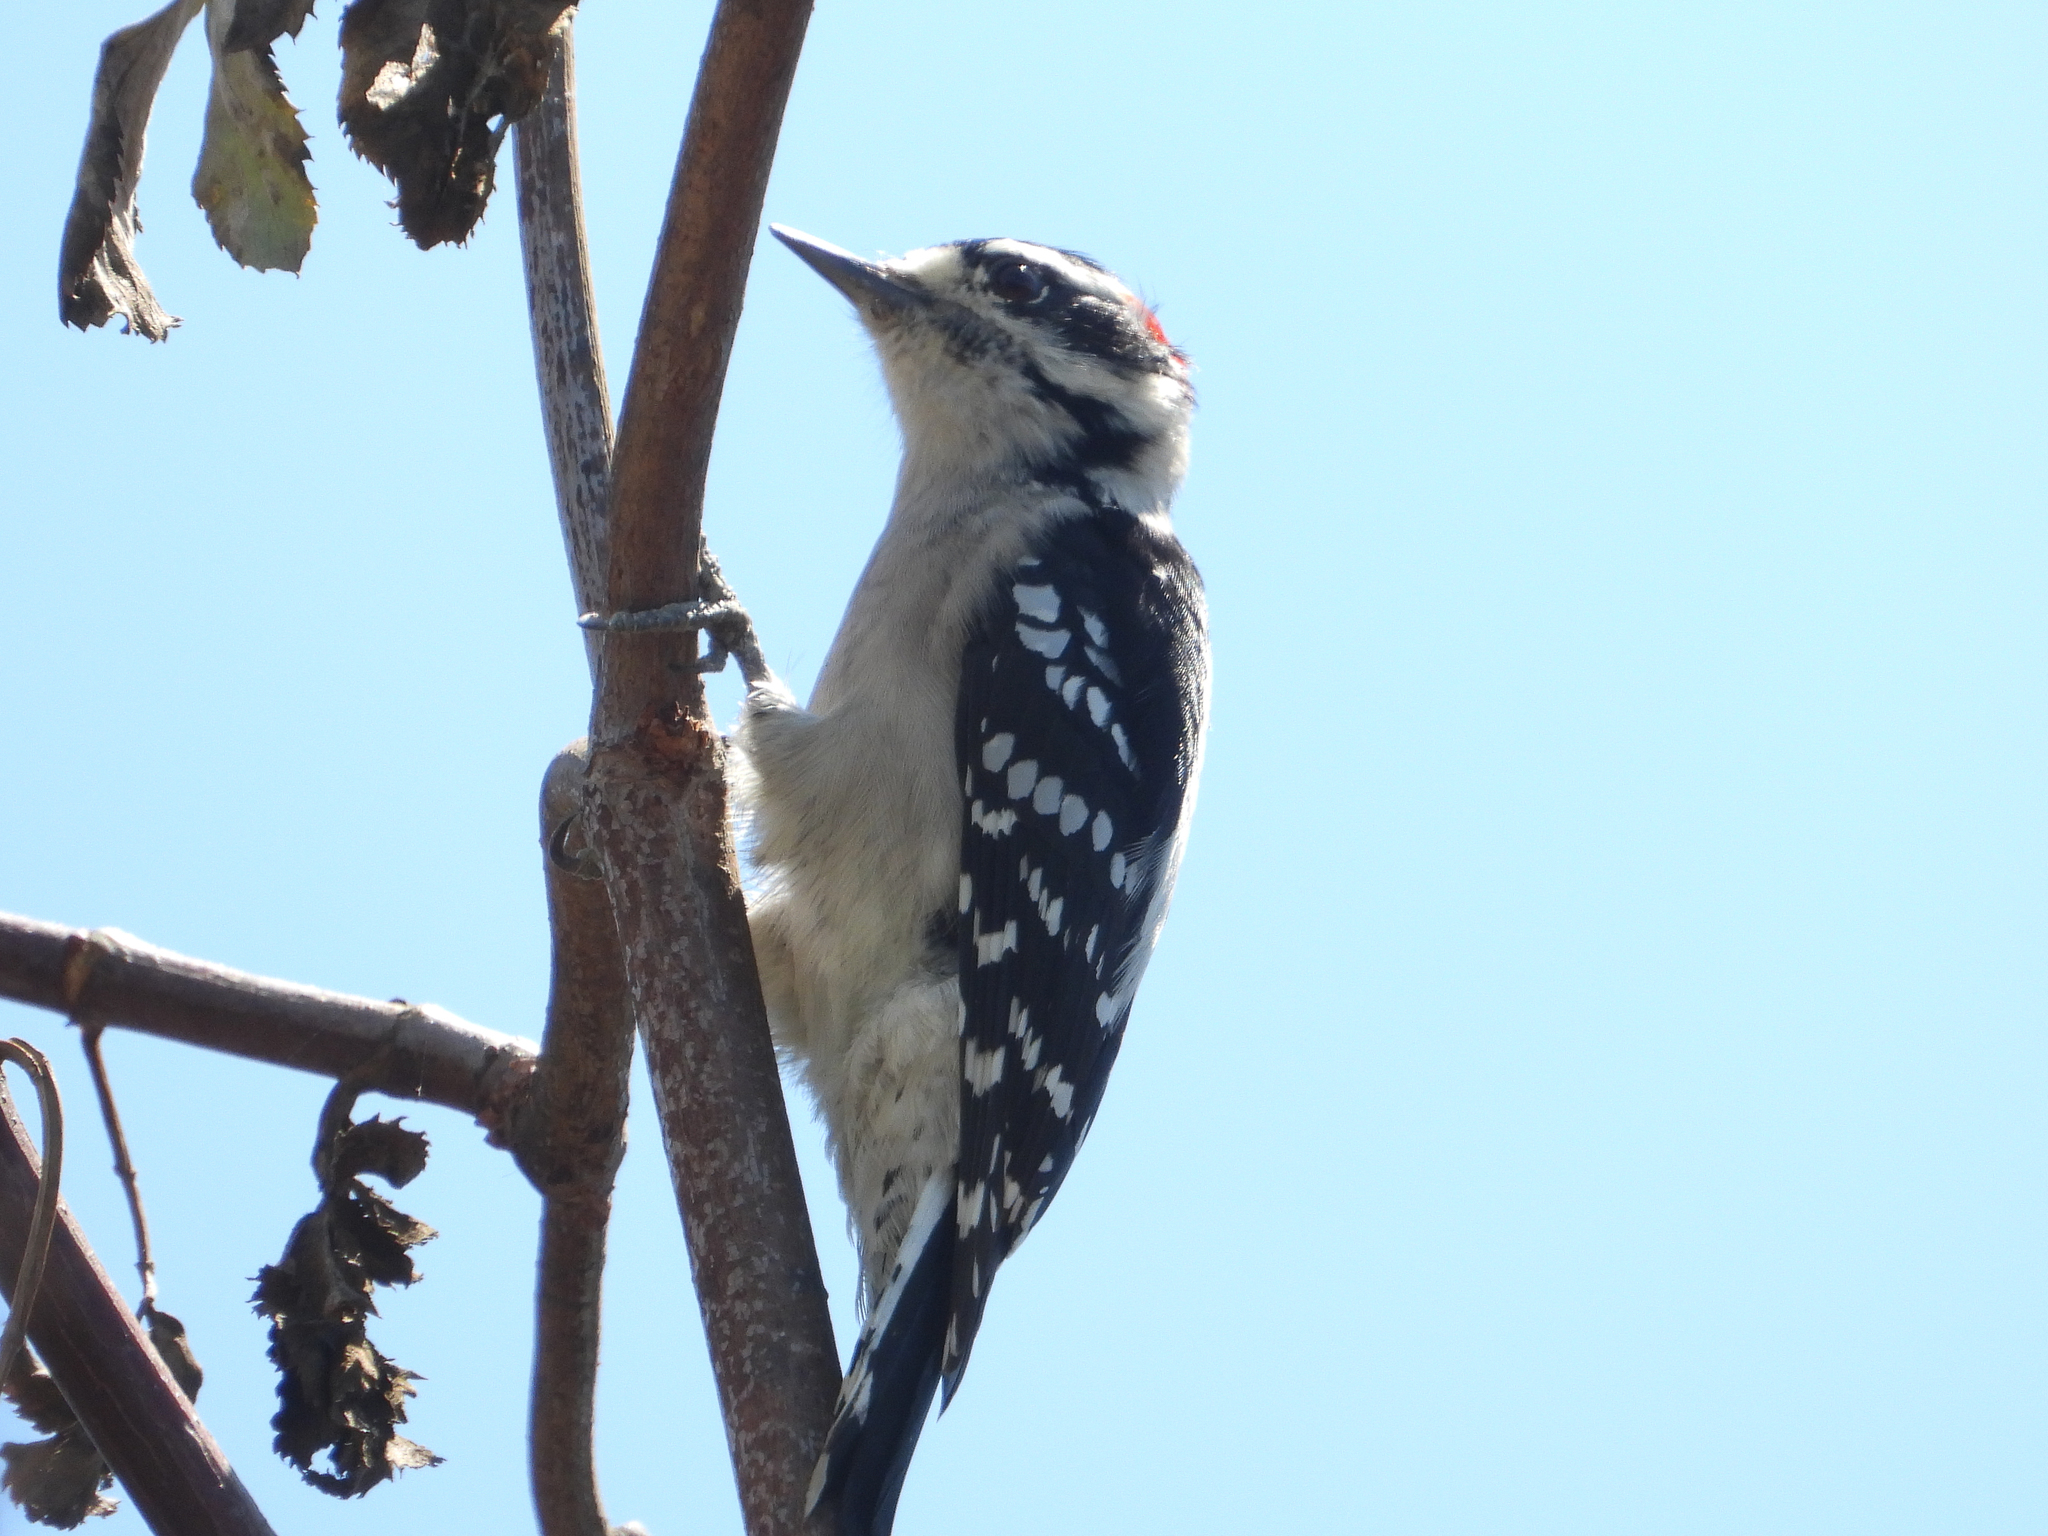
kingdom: Animalia
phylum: Chordata
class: Aves
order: Piciformes
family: Picidae
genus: Dryobates
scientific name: Dryobates pubescens
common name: Downy woodpecker
